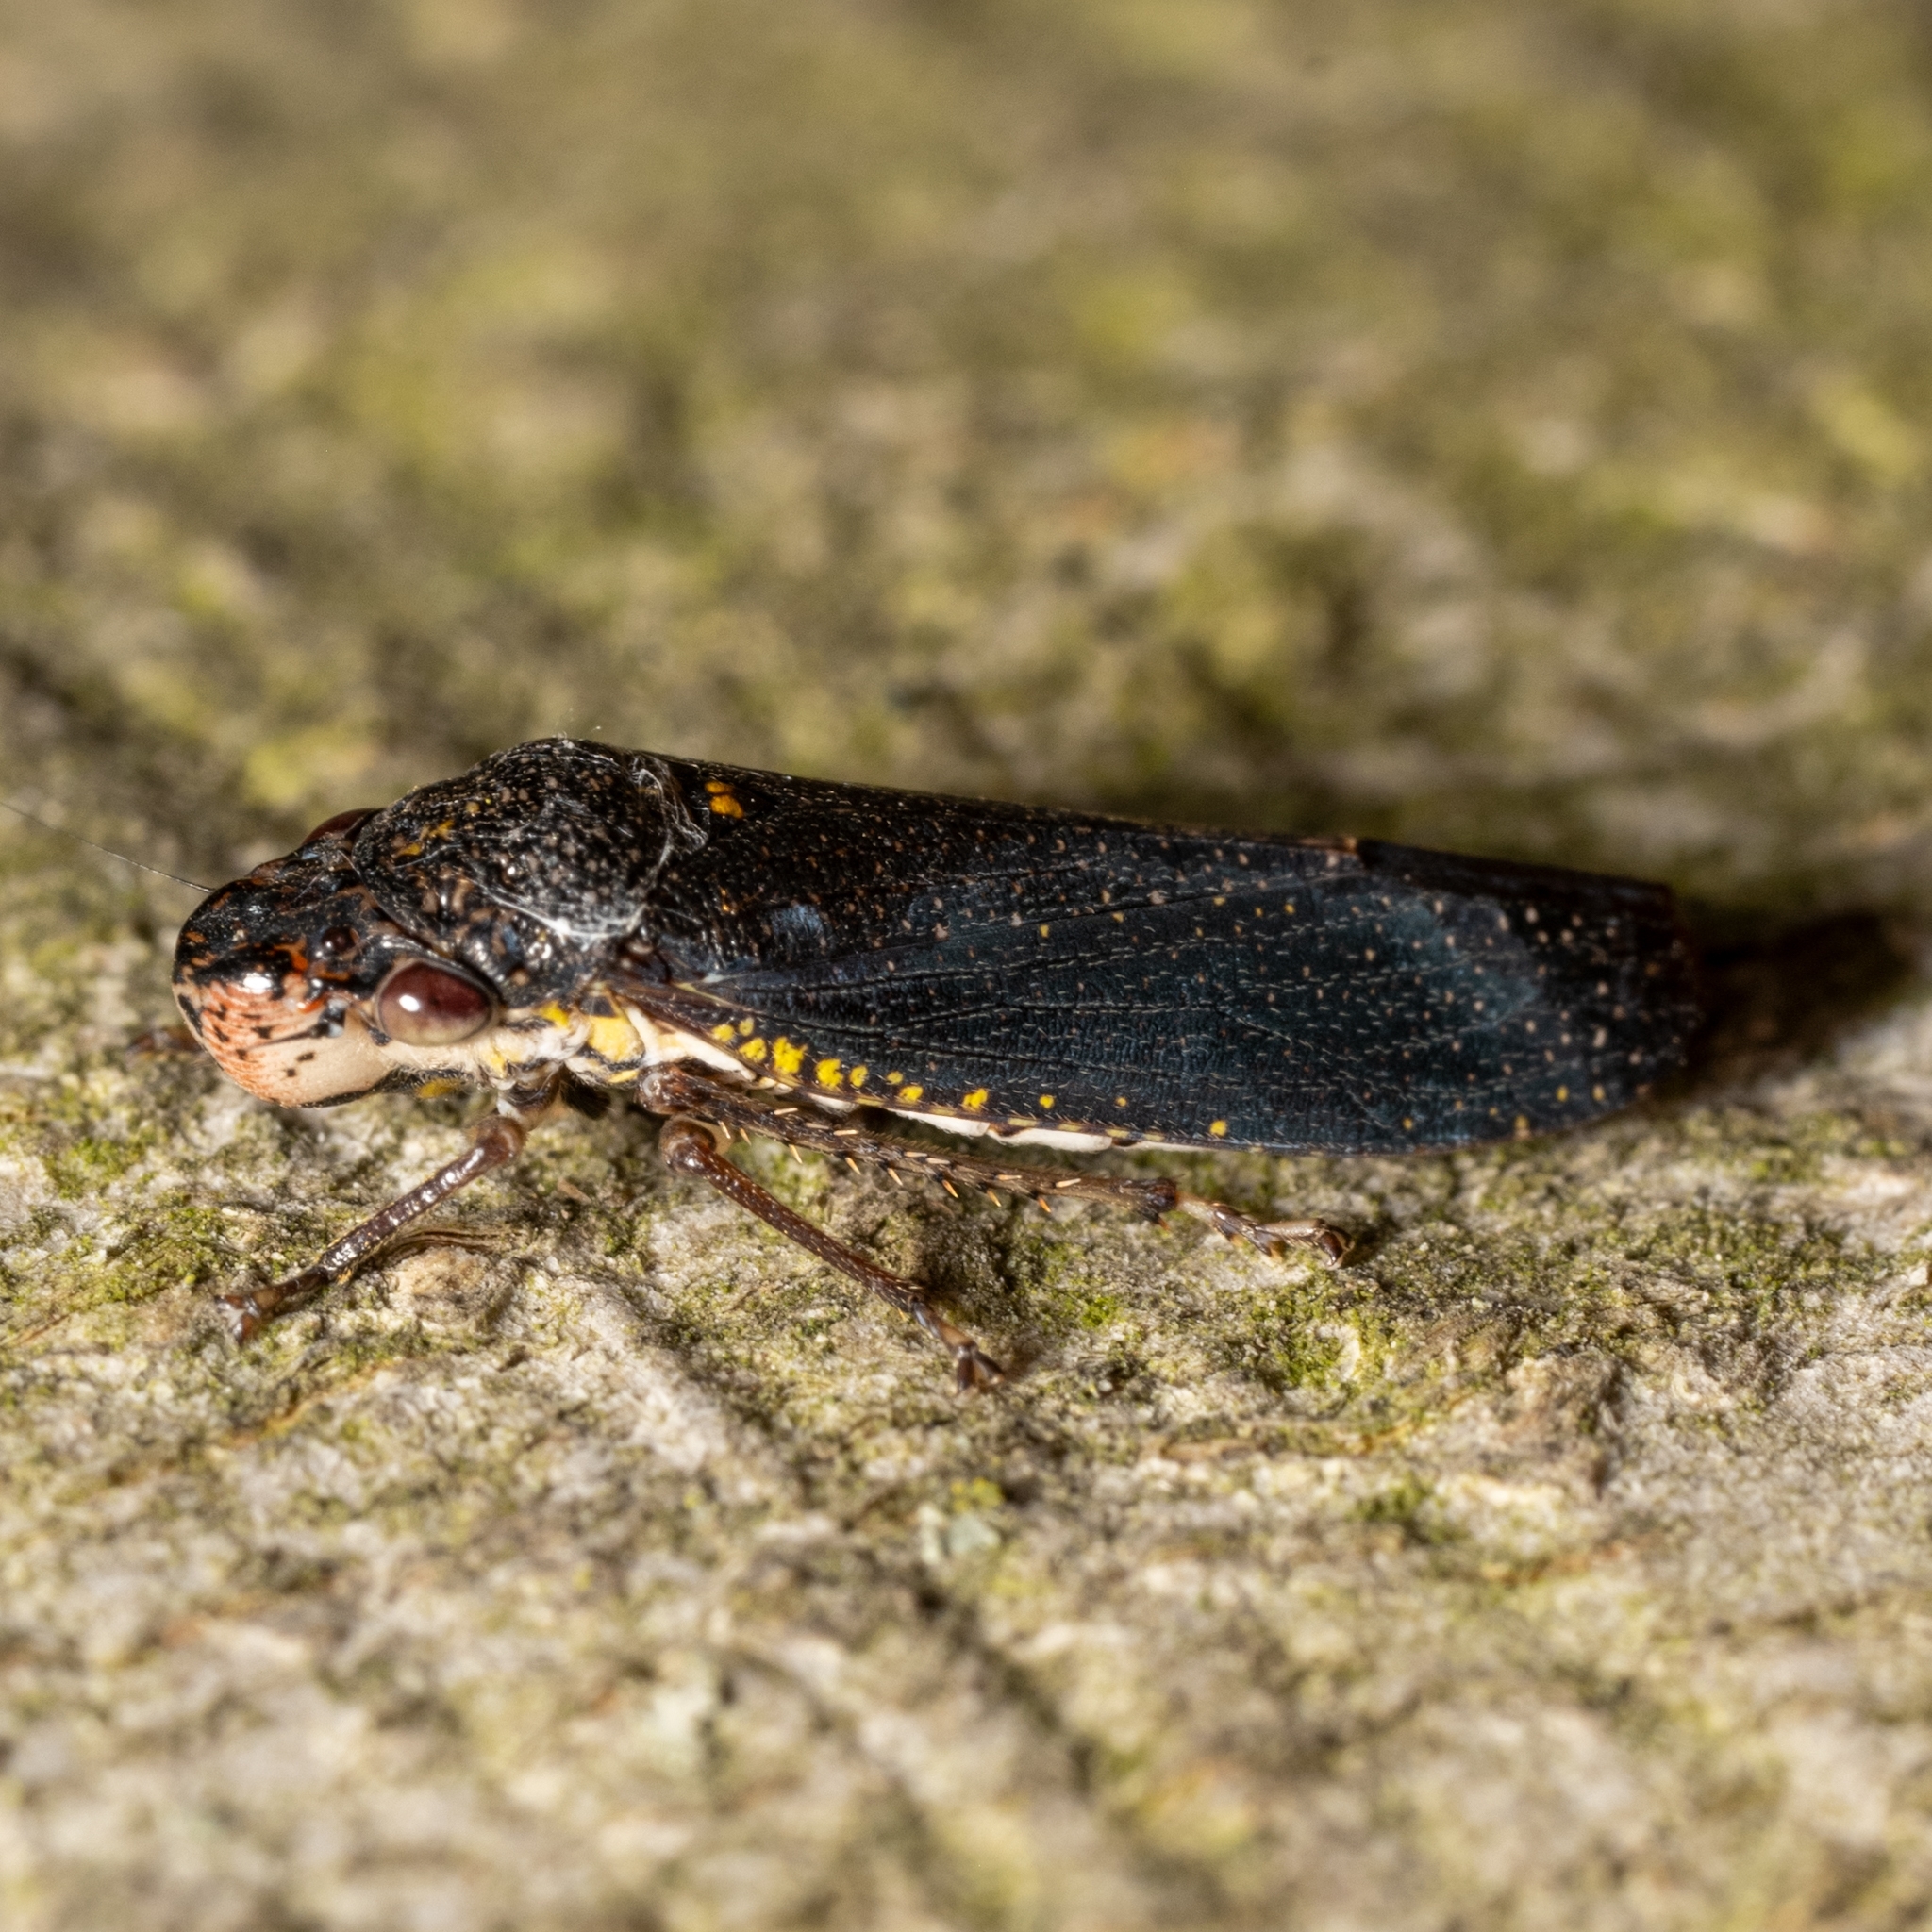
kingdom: Animalia
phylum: Arthropoda
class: Insecta
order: Hemiptera
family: Cicadellidae
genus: Paraulacizes
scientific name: Paraulacizes irrorata
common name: Speckled sharpshooter
